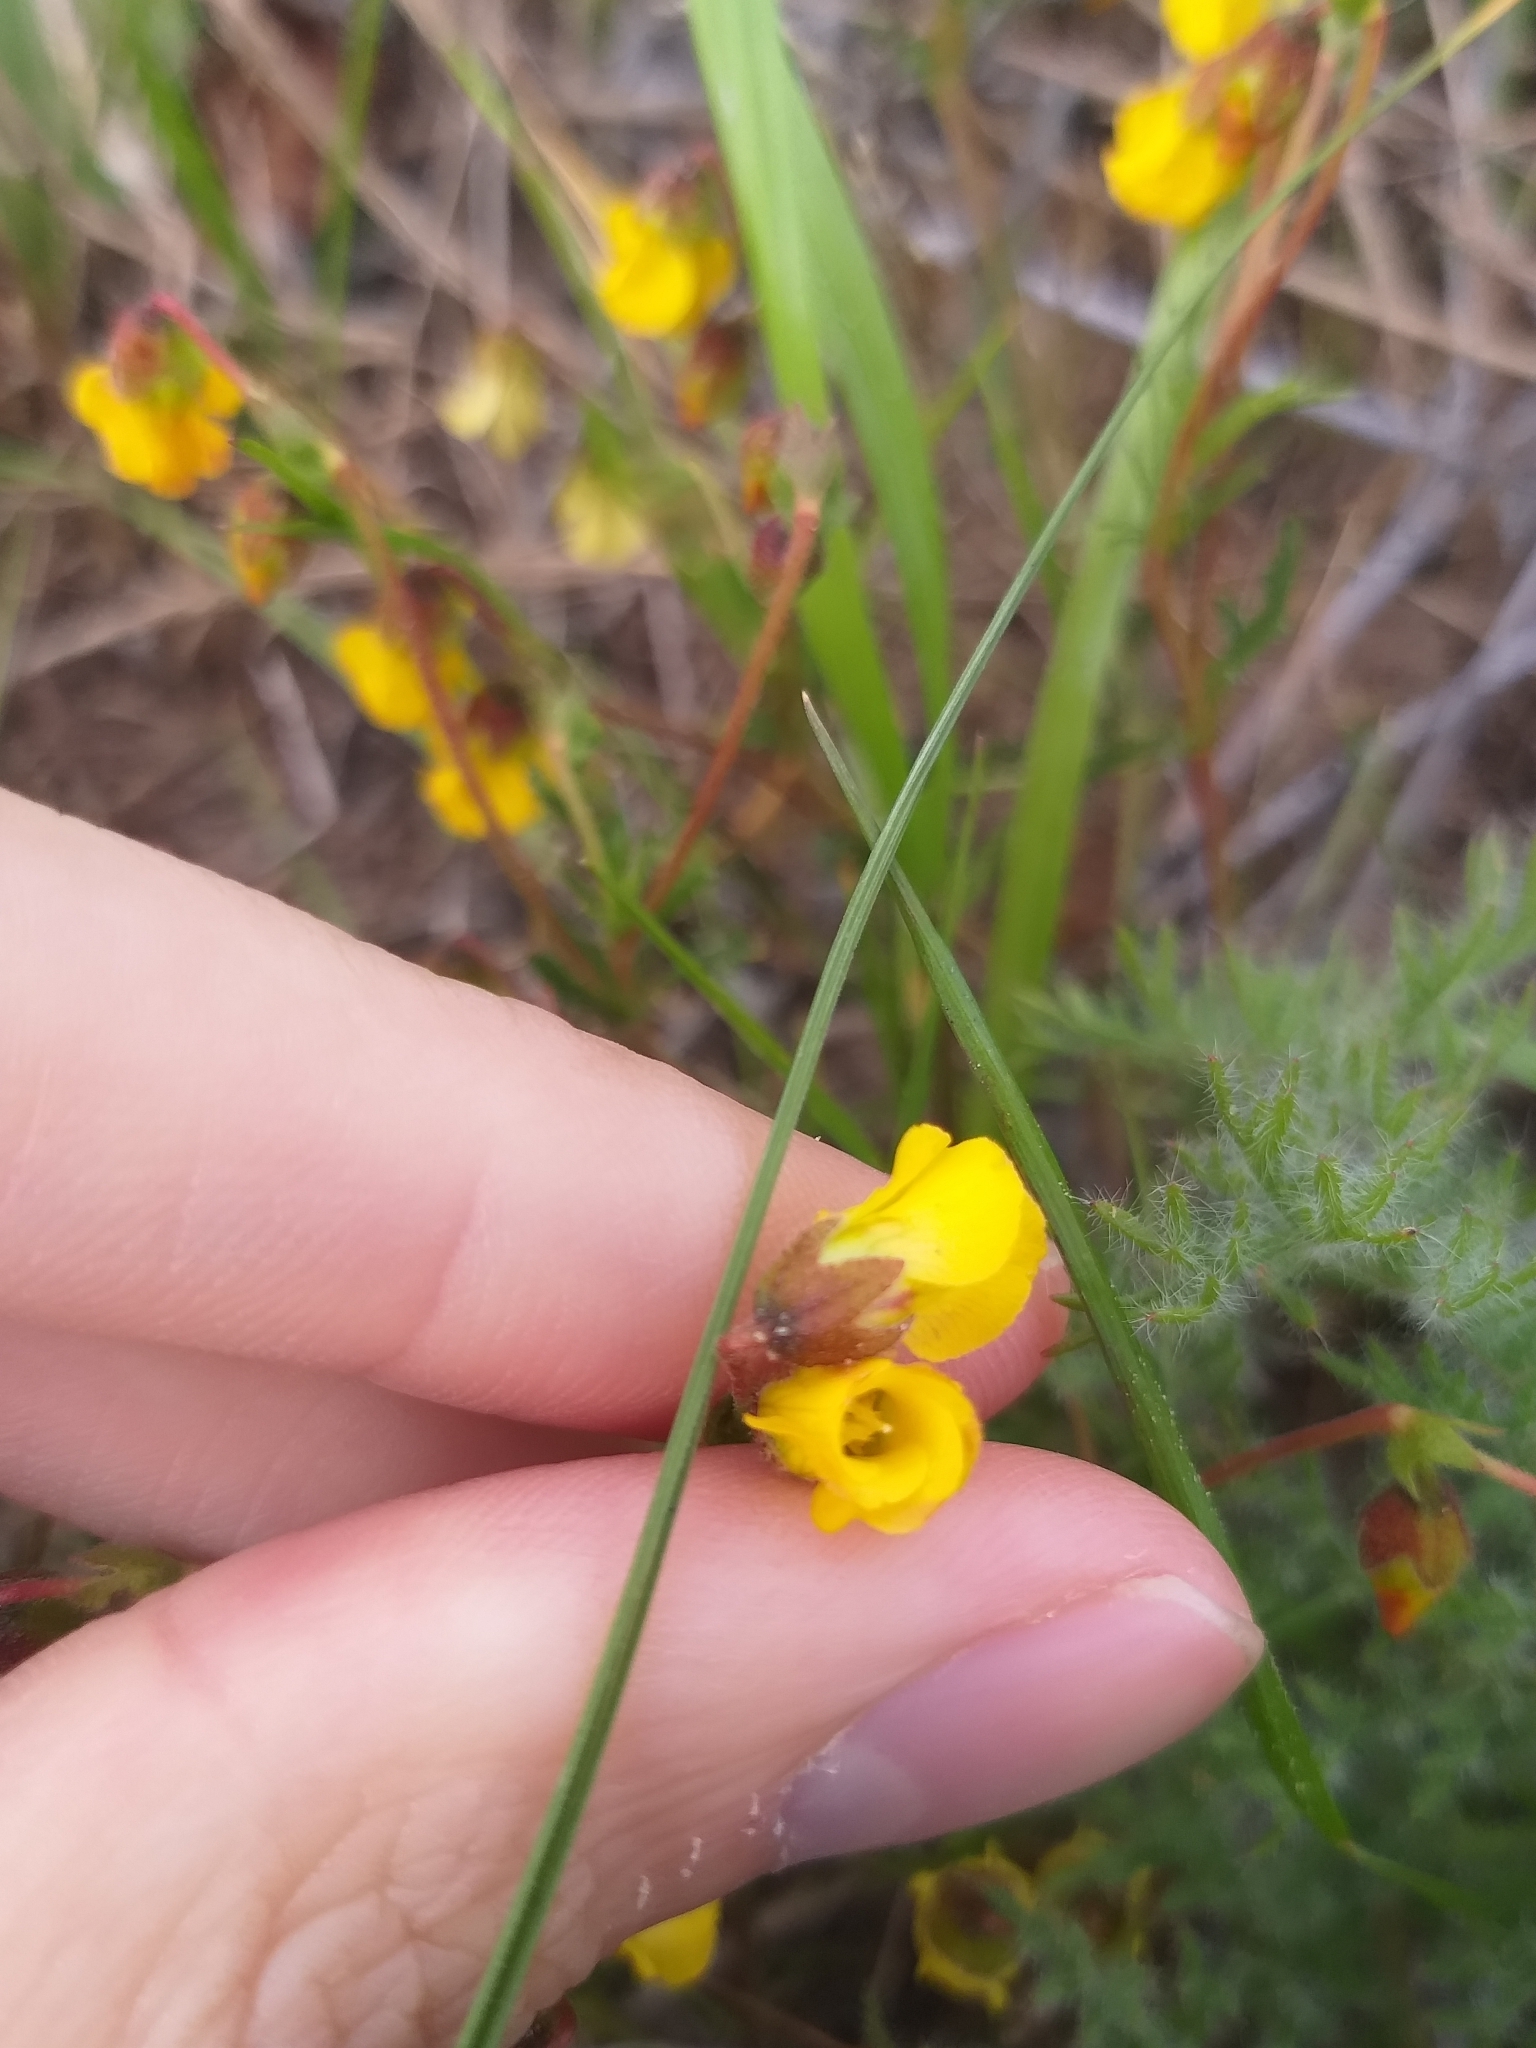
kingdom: Plantae
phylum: Tracheophyta
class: Magnoliopsida
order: Malvales
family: Malvaceae
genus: Hermannia
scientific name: Hermannia pinnata
